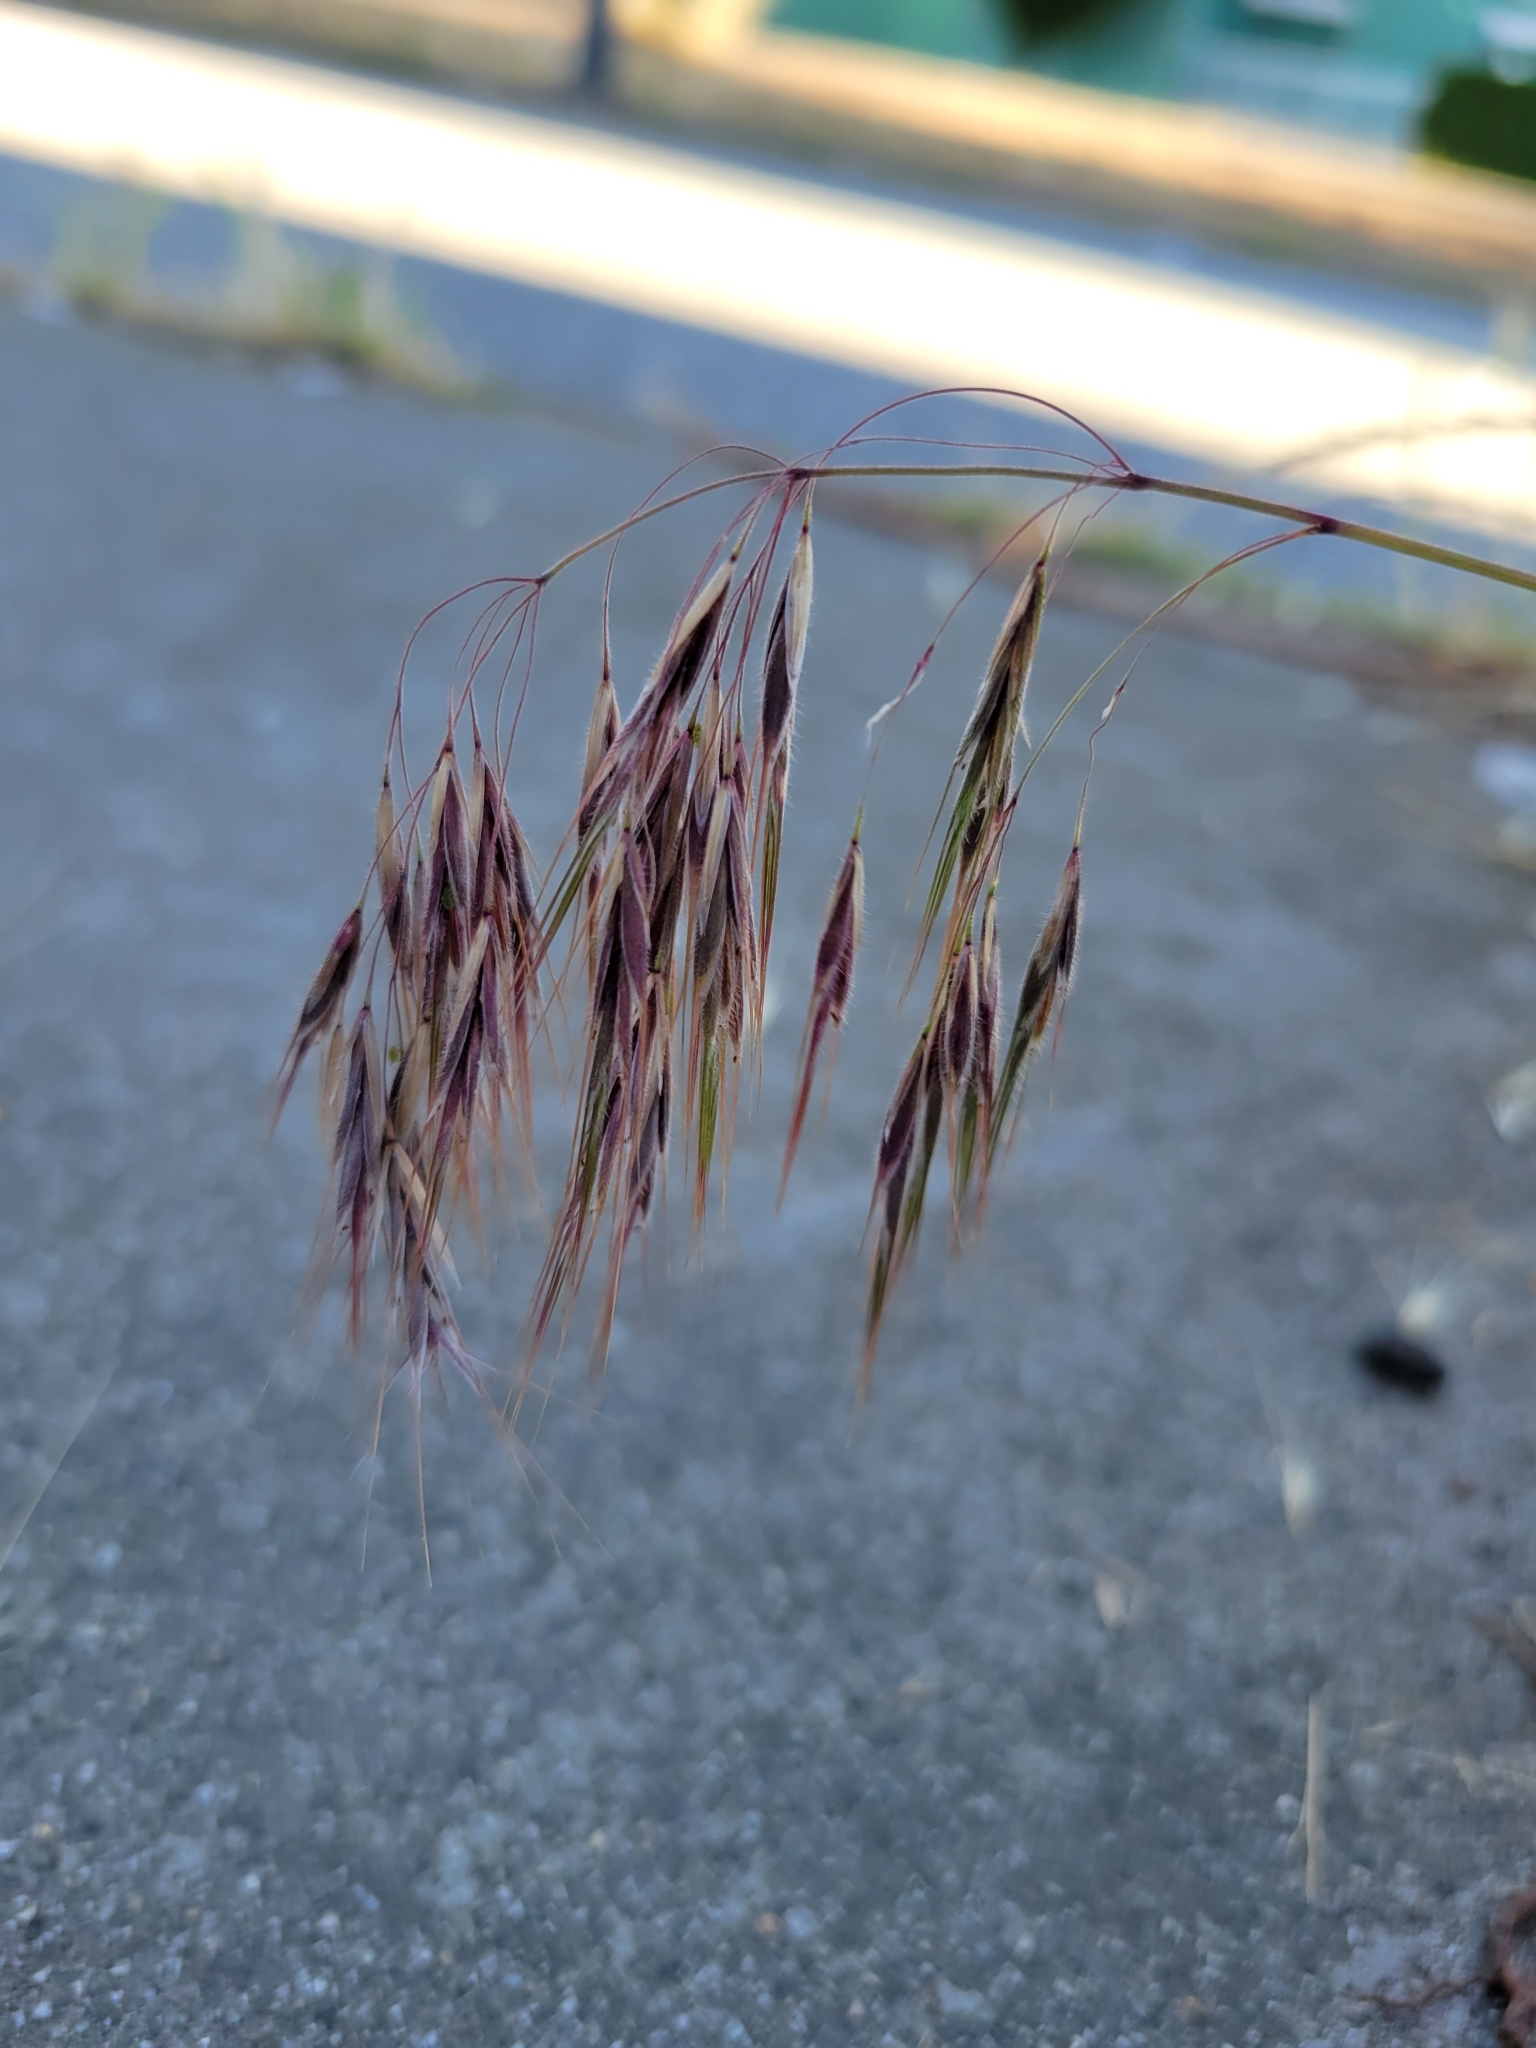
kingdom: Plantae
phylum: Tracheophyta
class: Liliopsida
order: Poales
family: Poaceae
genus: Bromus
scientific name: Bromus tectorum
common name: Cheatgrass
